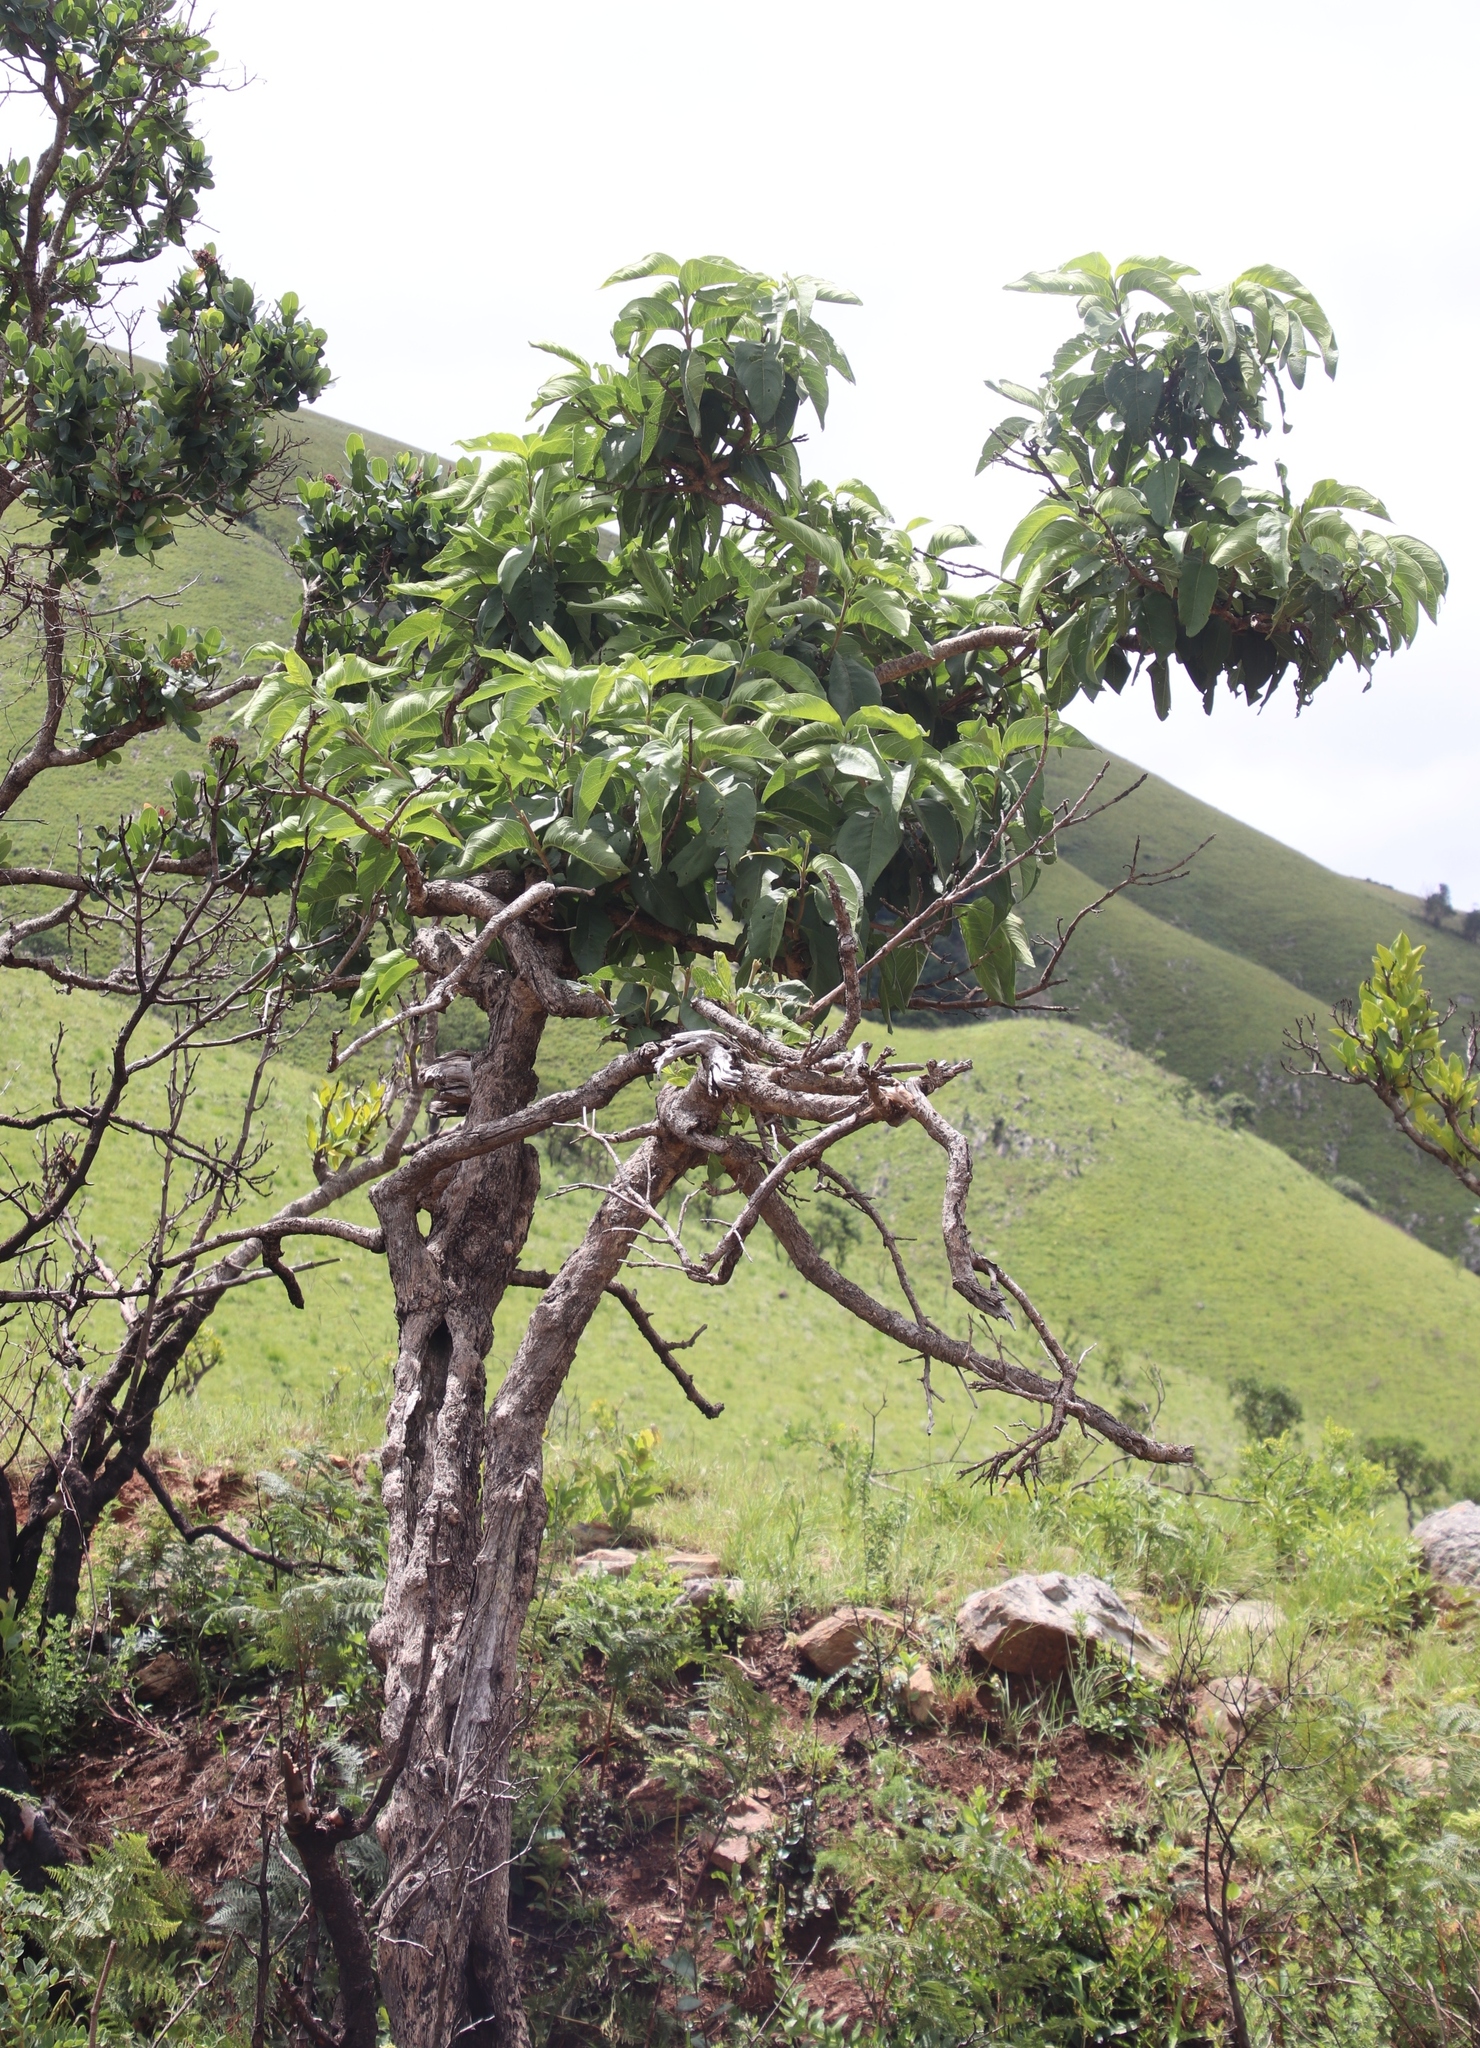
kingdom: Plantae
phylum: Tracheophyta
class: Magnoliopsida
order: Gentianales
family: Rubiaceae
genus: Vangueria
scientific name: Vangueria infausta
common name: Medlar
